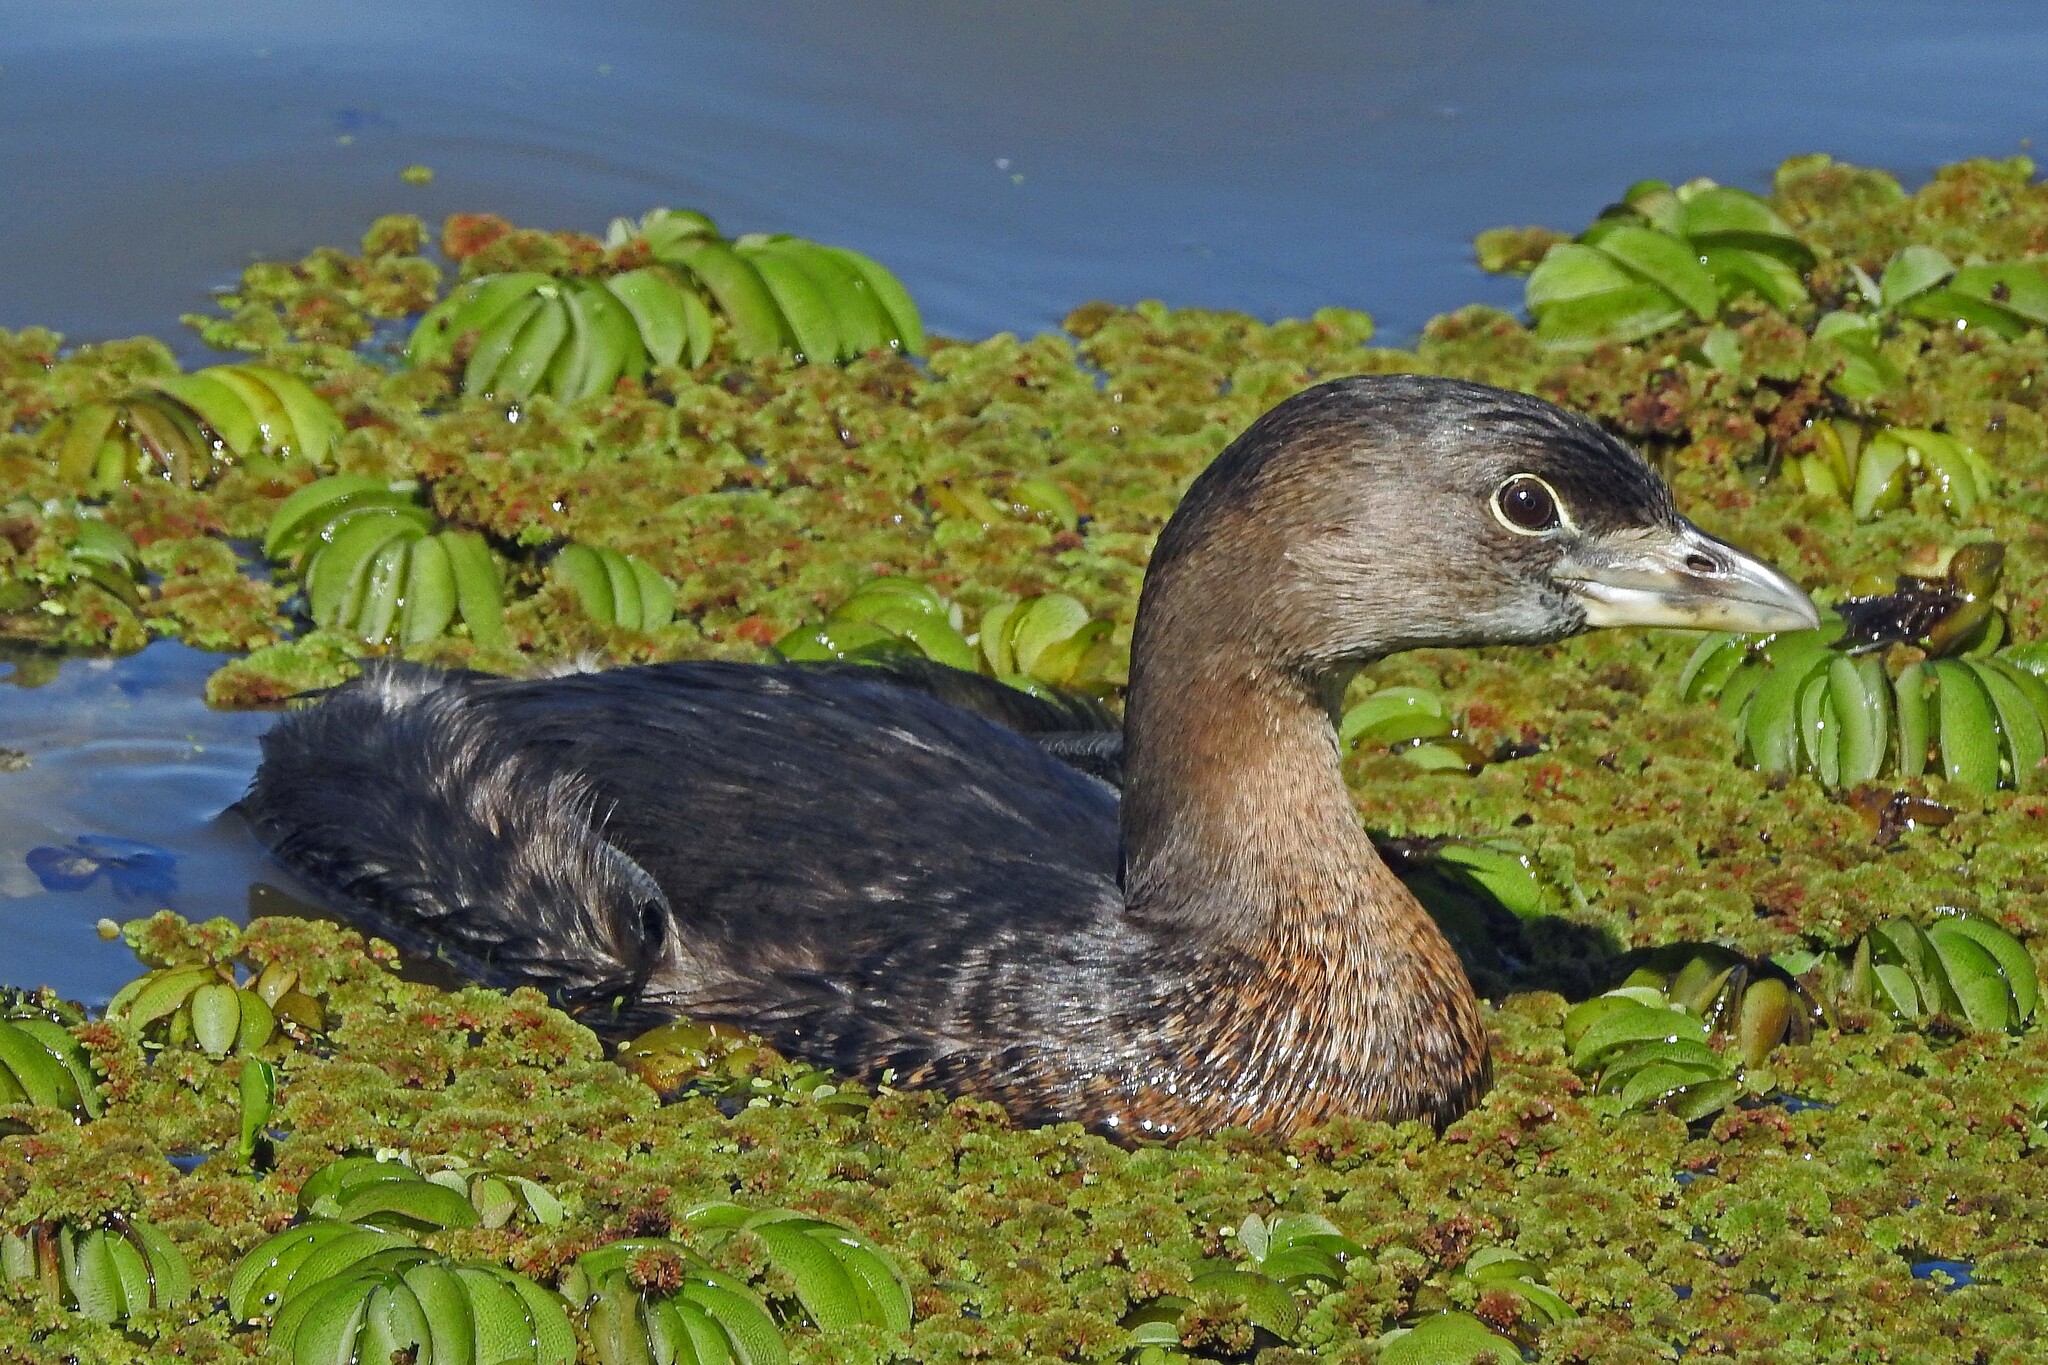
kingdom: Animalia
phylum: Chordata
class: Aves
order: Podicipediformes
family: Podicipedidae
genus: Podilymbus
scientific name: Podilymbus podiceps
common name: Pied-billed grebe
